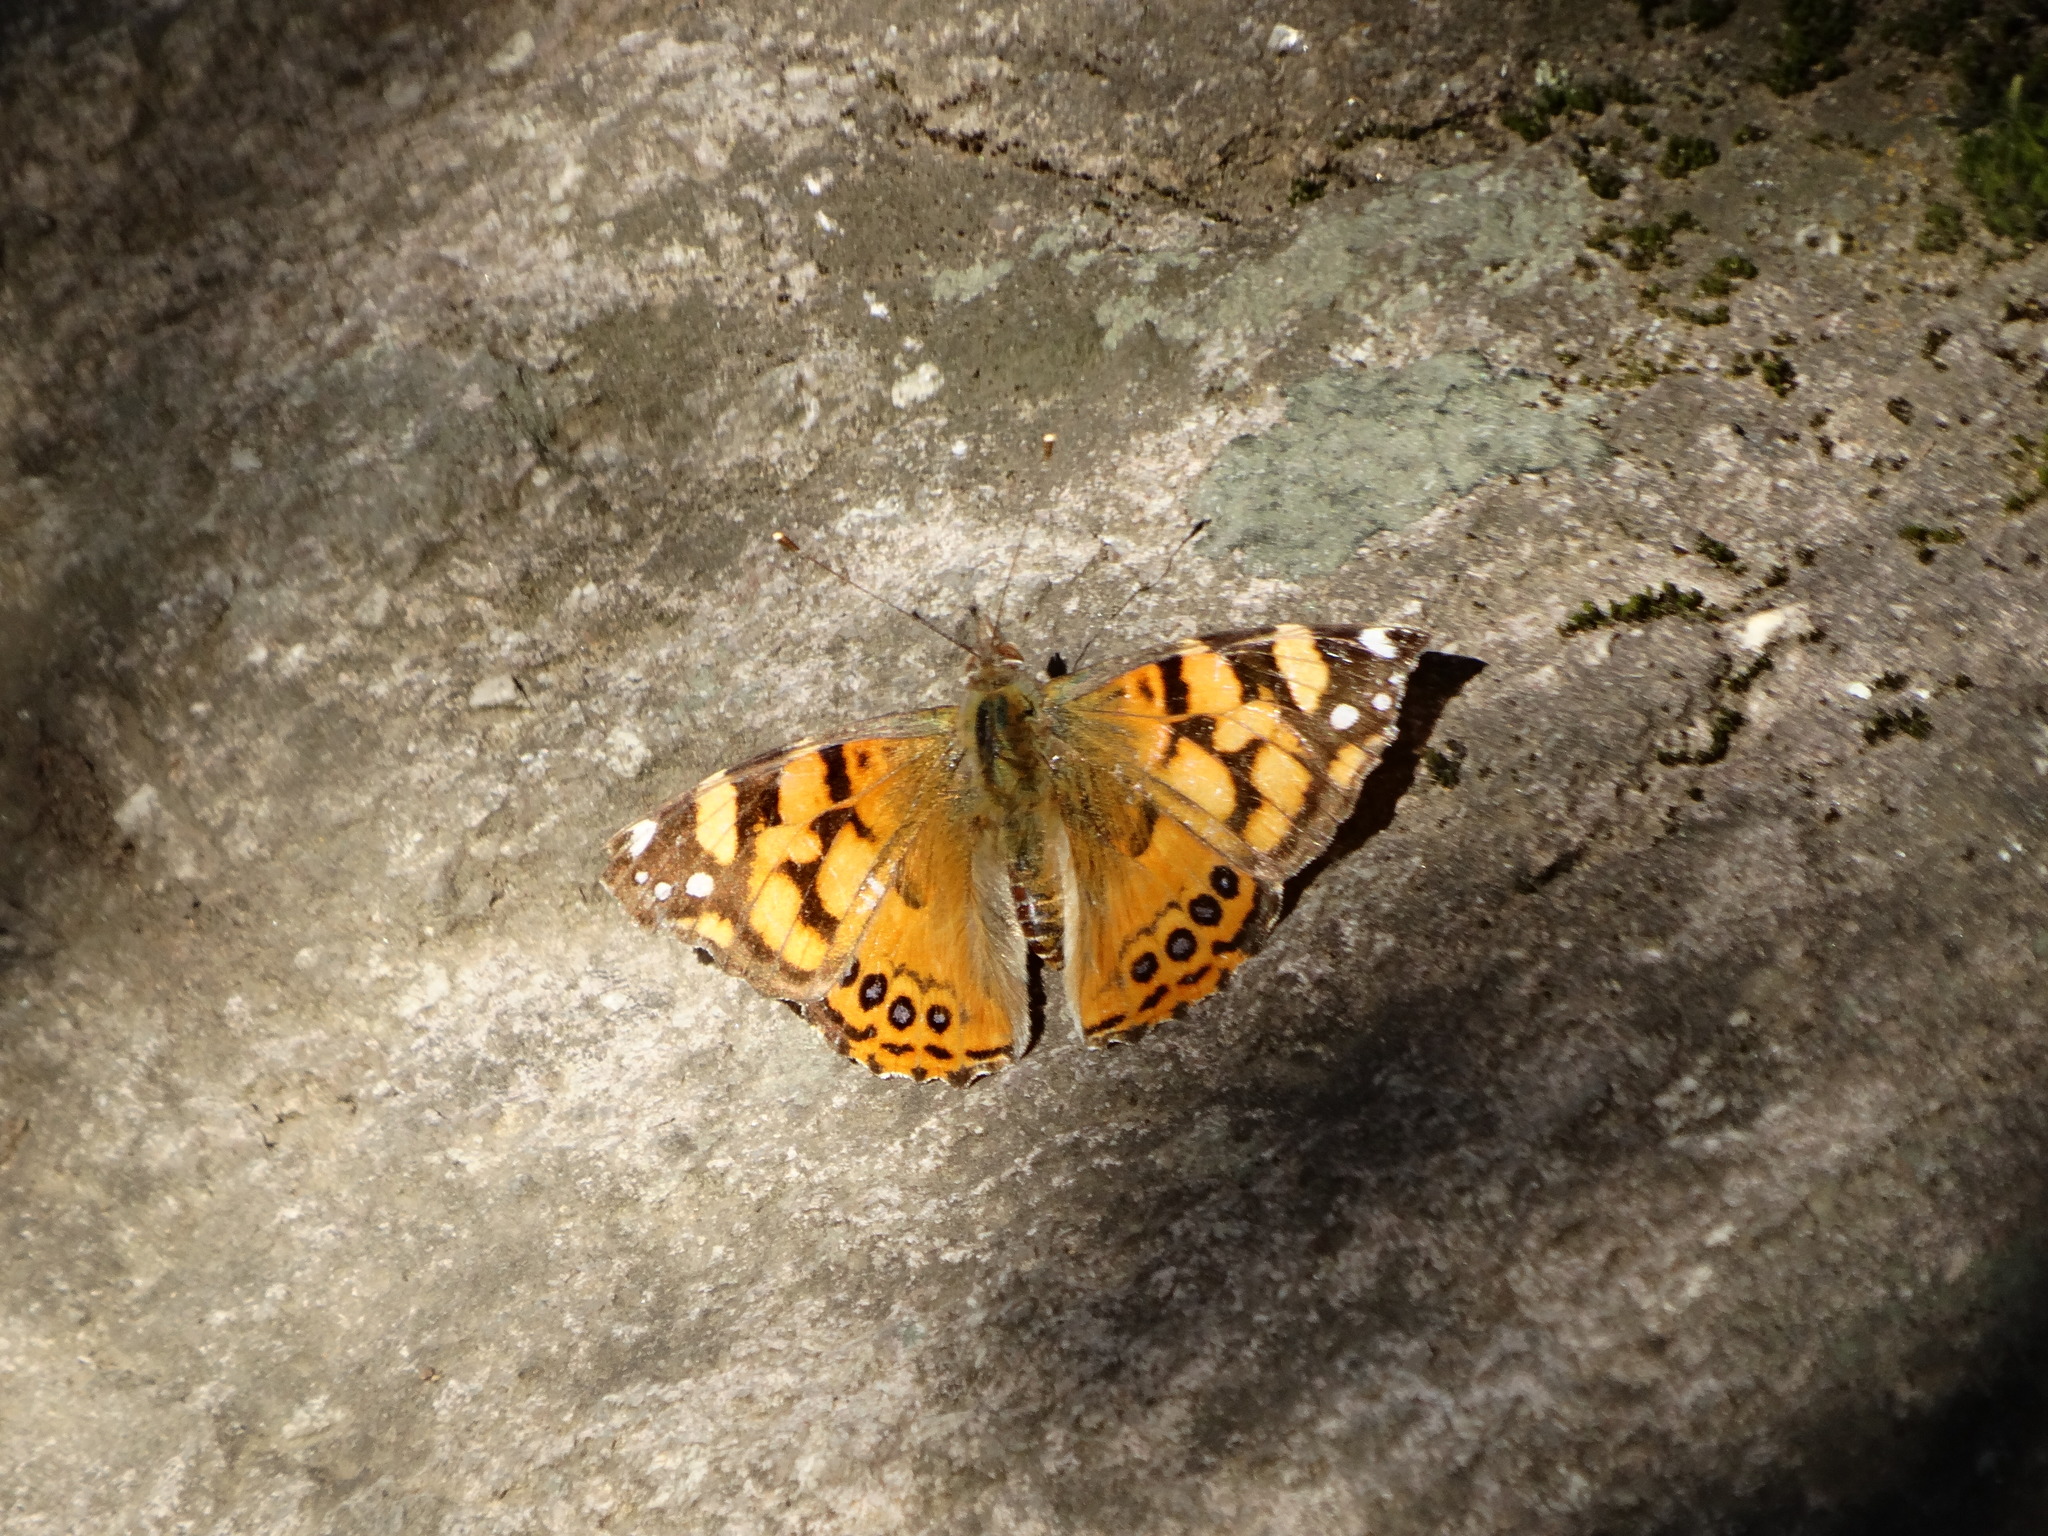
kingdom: Animalia
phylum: Arthropoda
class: Insecta
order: Lepidoptera
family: Nymphalidae
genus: Vanessa
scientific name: Vanessa annabella
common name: West coast lady
